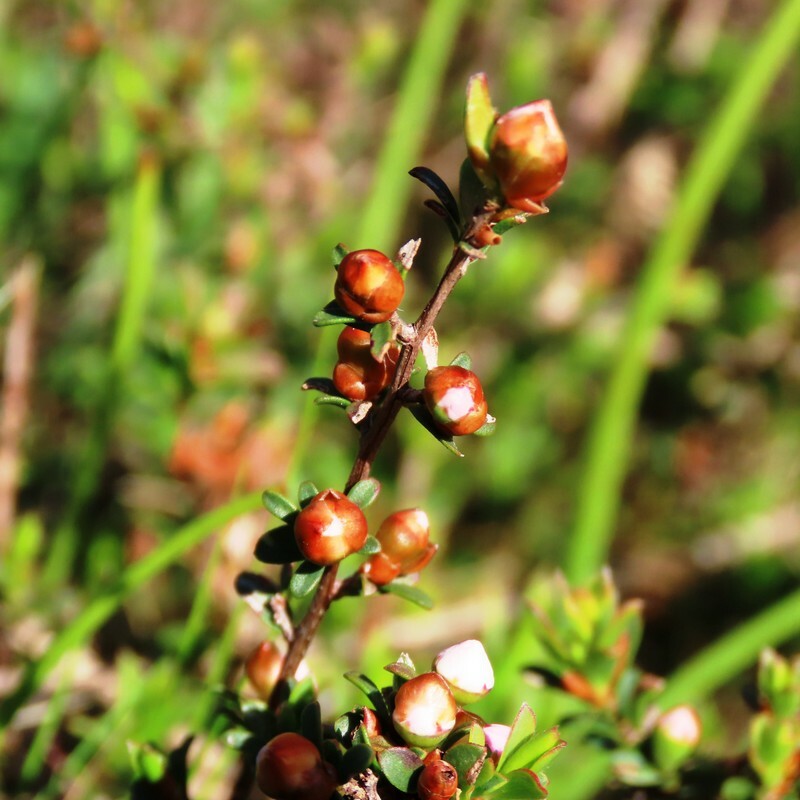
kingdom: Plantae
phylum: Tracheophyta
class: Magnoliopsida
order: Myrtales
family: Myrtaceae
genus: Leptospermum
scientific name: Leptospermum myrsinoides
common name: Heath teatree
